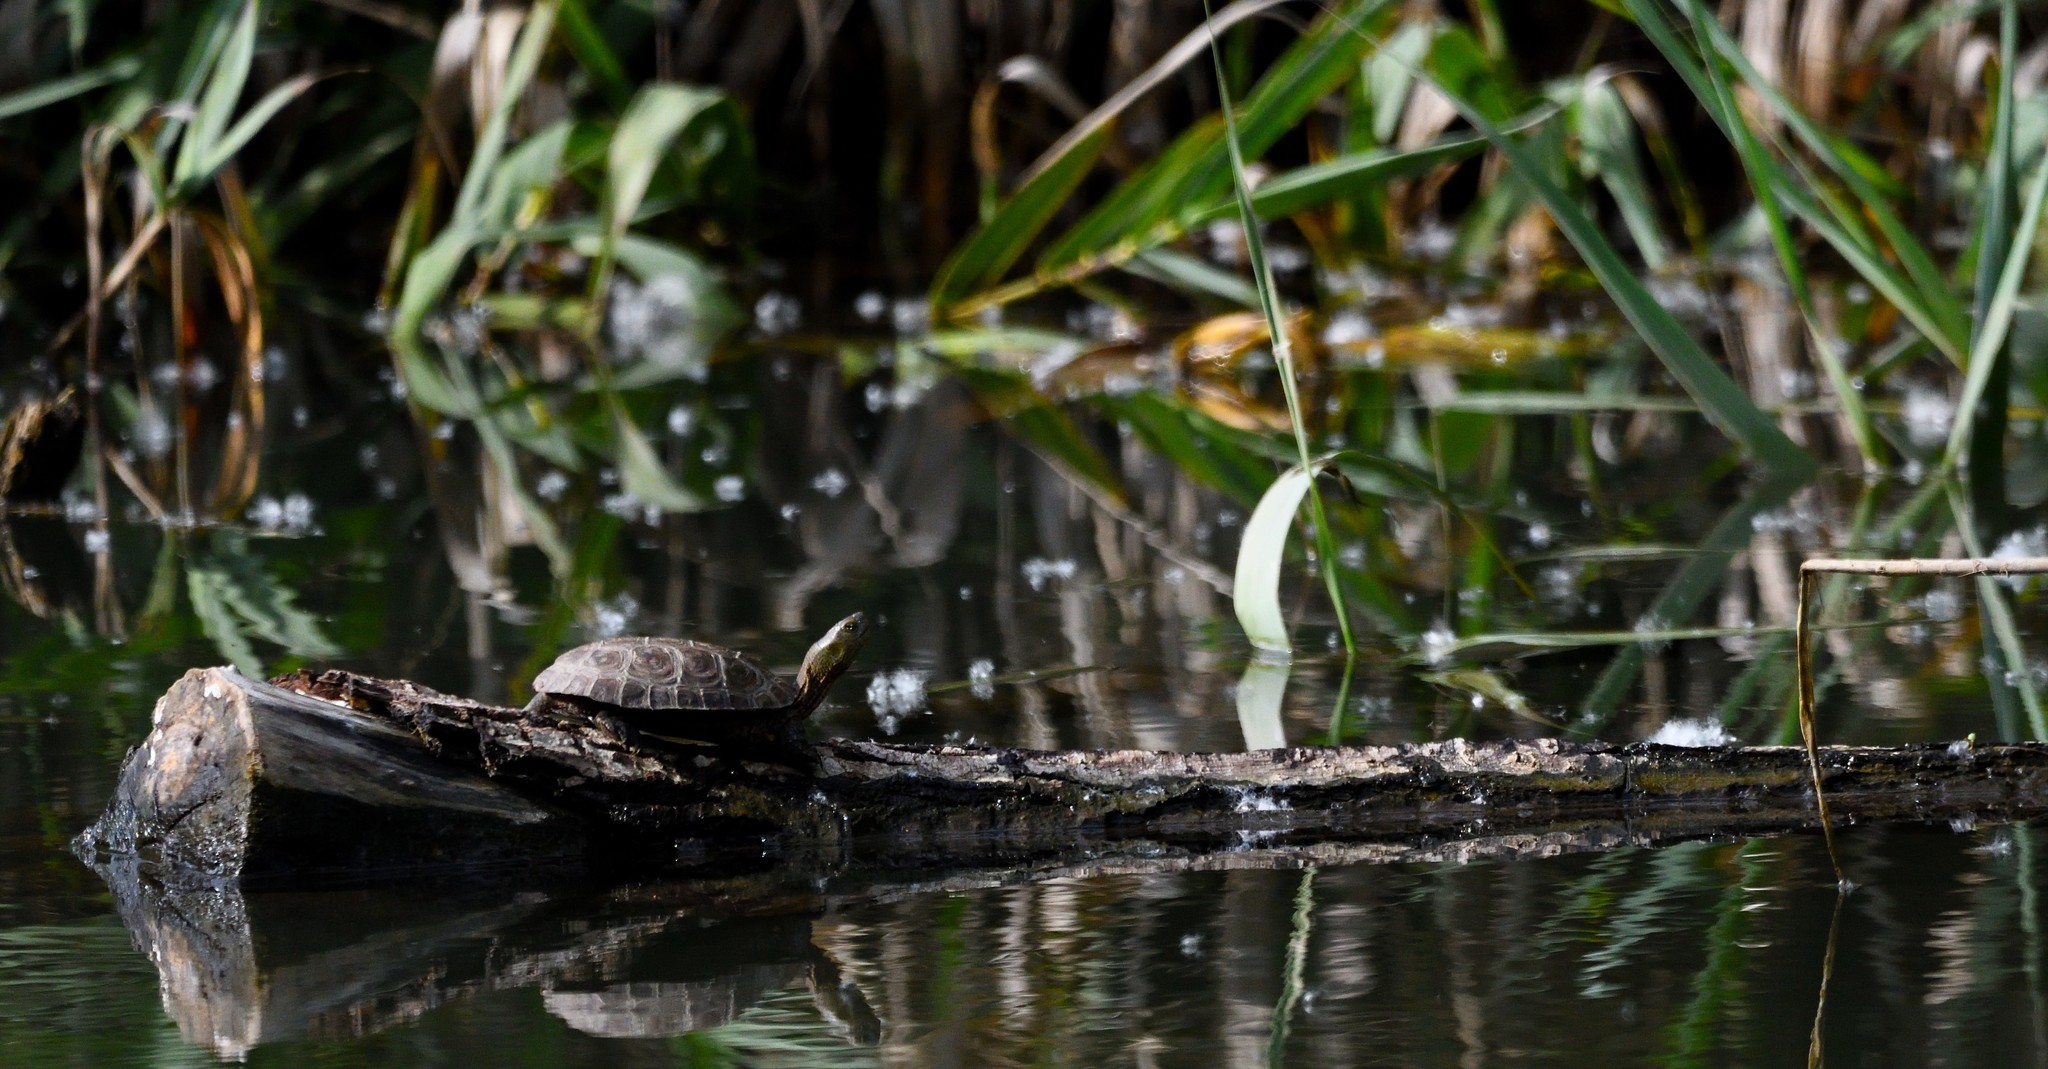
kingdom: Animalia
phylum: Chordata
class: Testudines
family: Geoemydidae
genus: Mauremys
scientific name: Mauremys leprosa
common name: Mediterranean pond turtle
